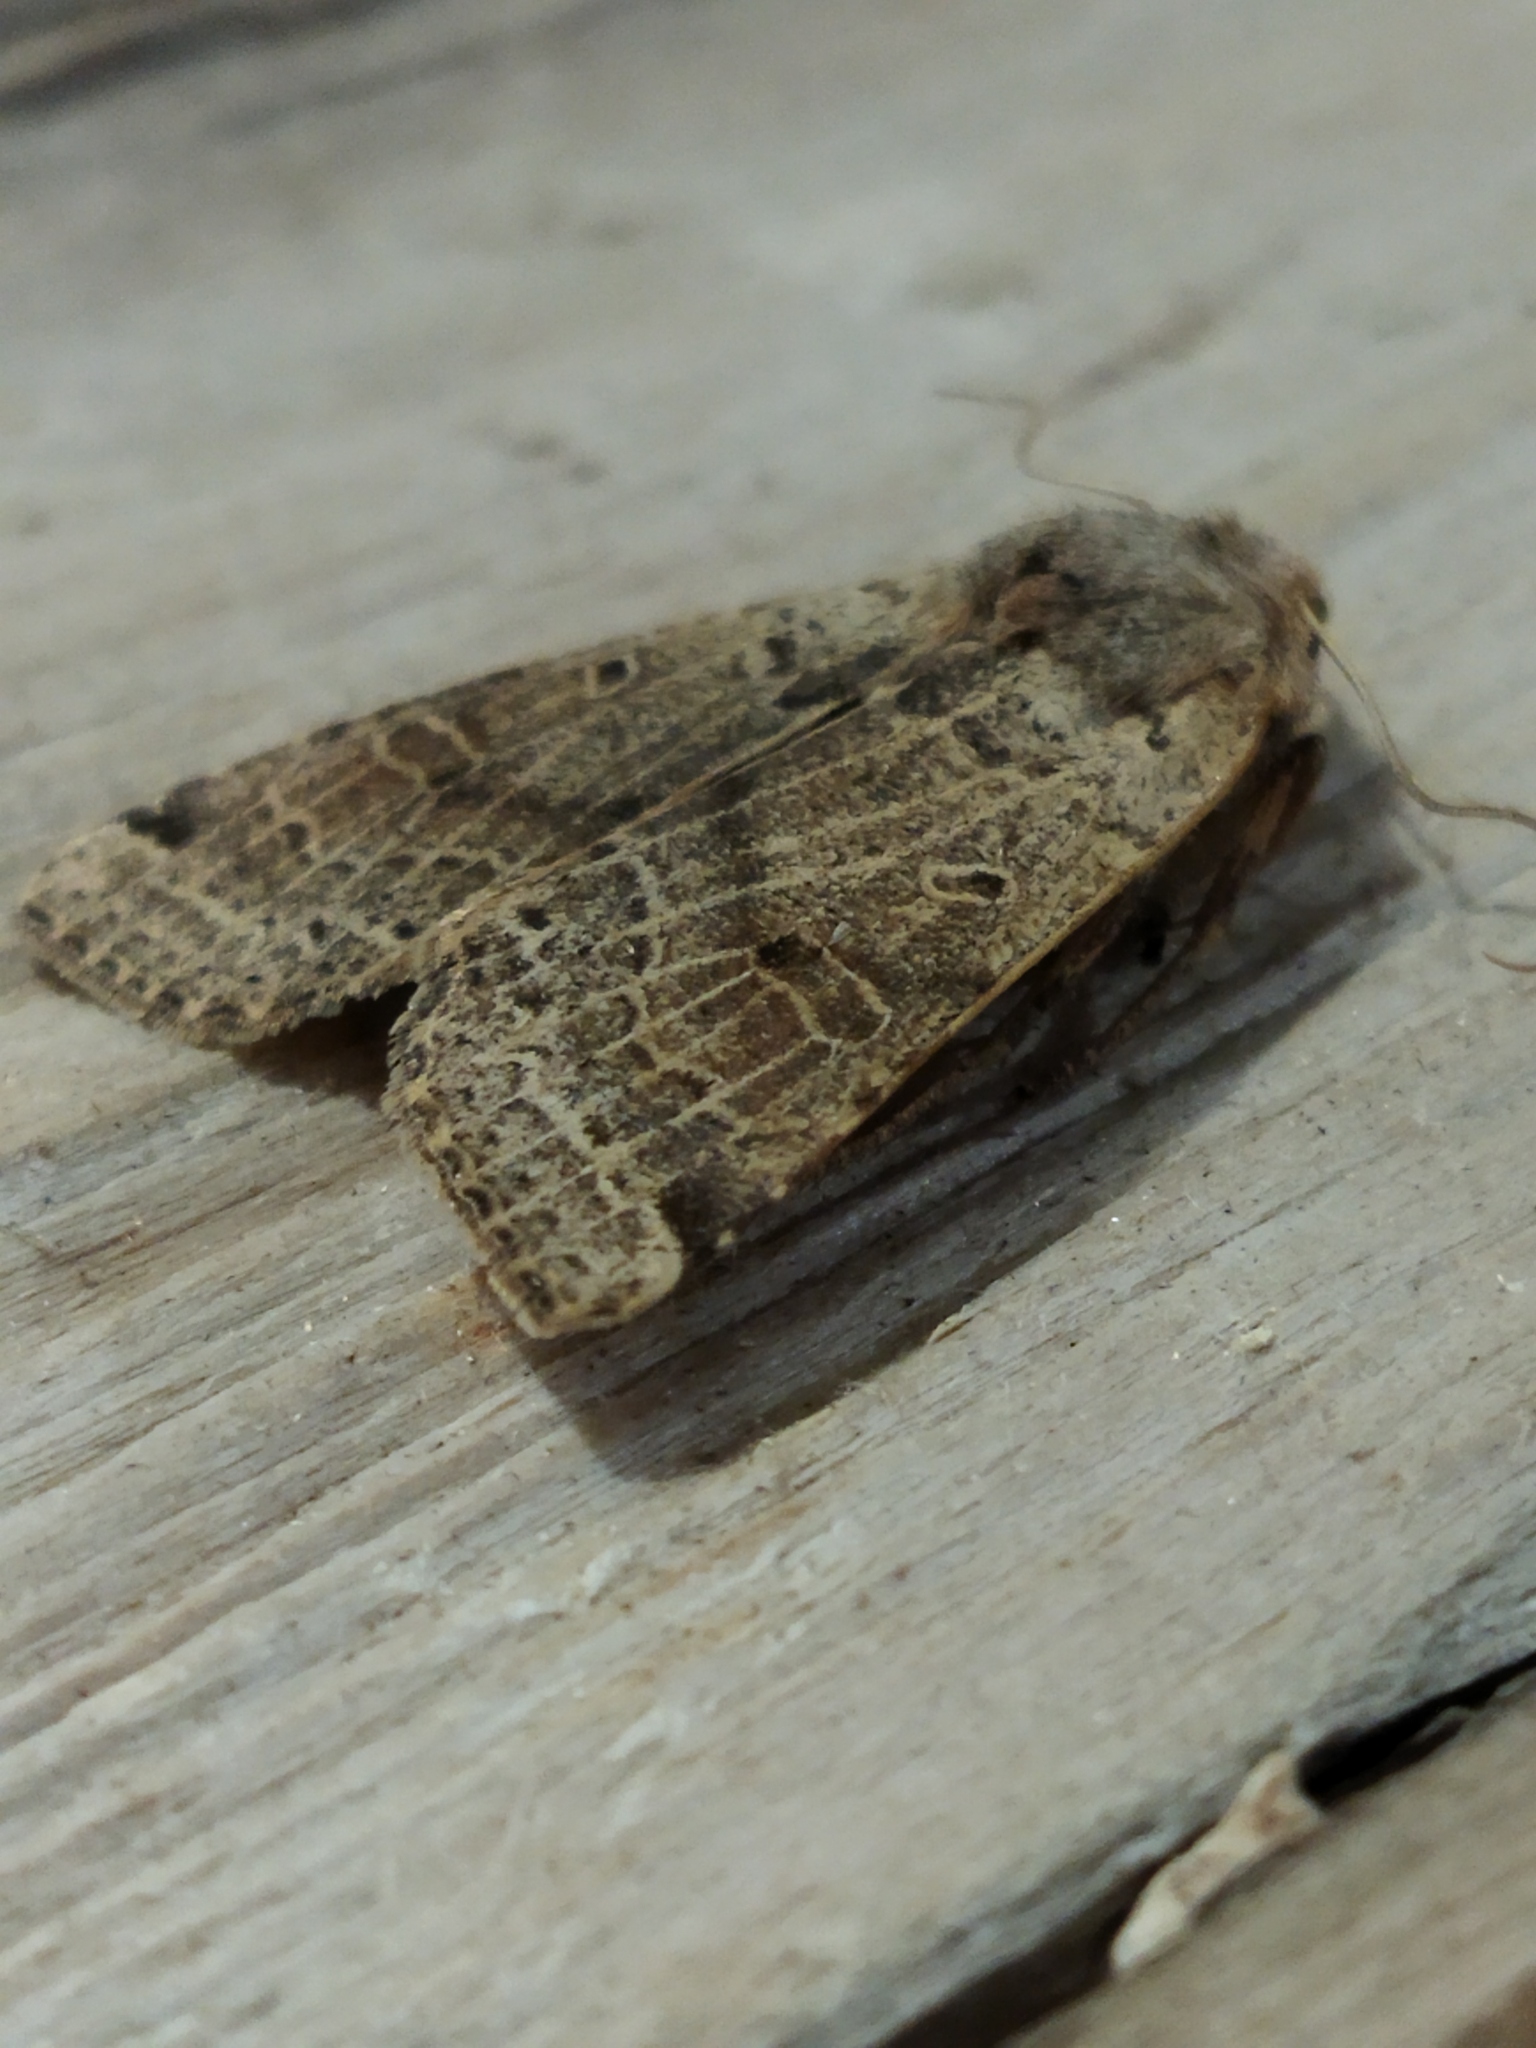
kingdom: Animalia
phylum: Arthropoda
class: Insecta
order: Lepidoptera
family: Noctuidae
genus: Agrochola
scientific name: Agrochola lychnidis
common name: Beaded chestnut
